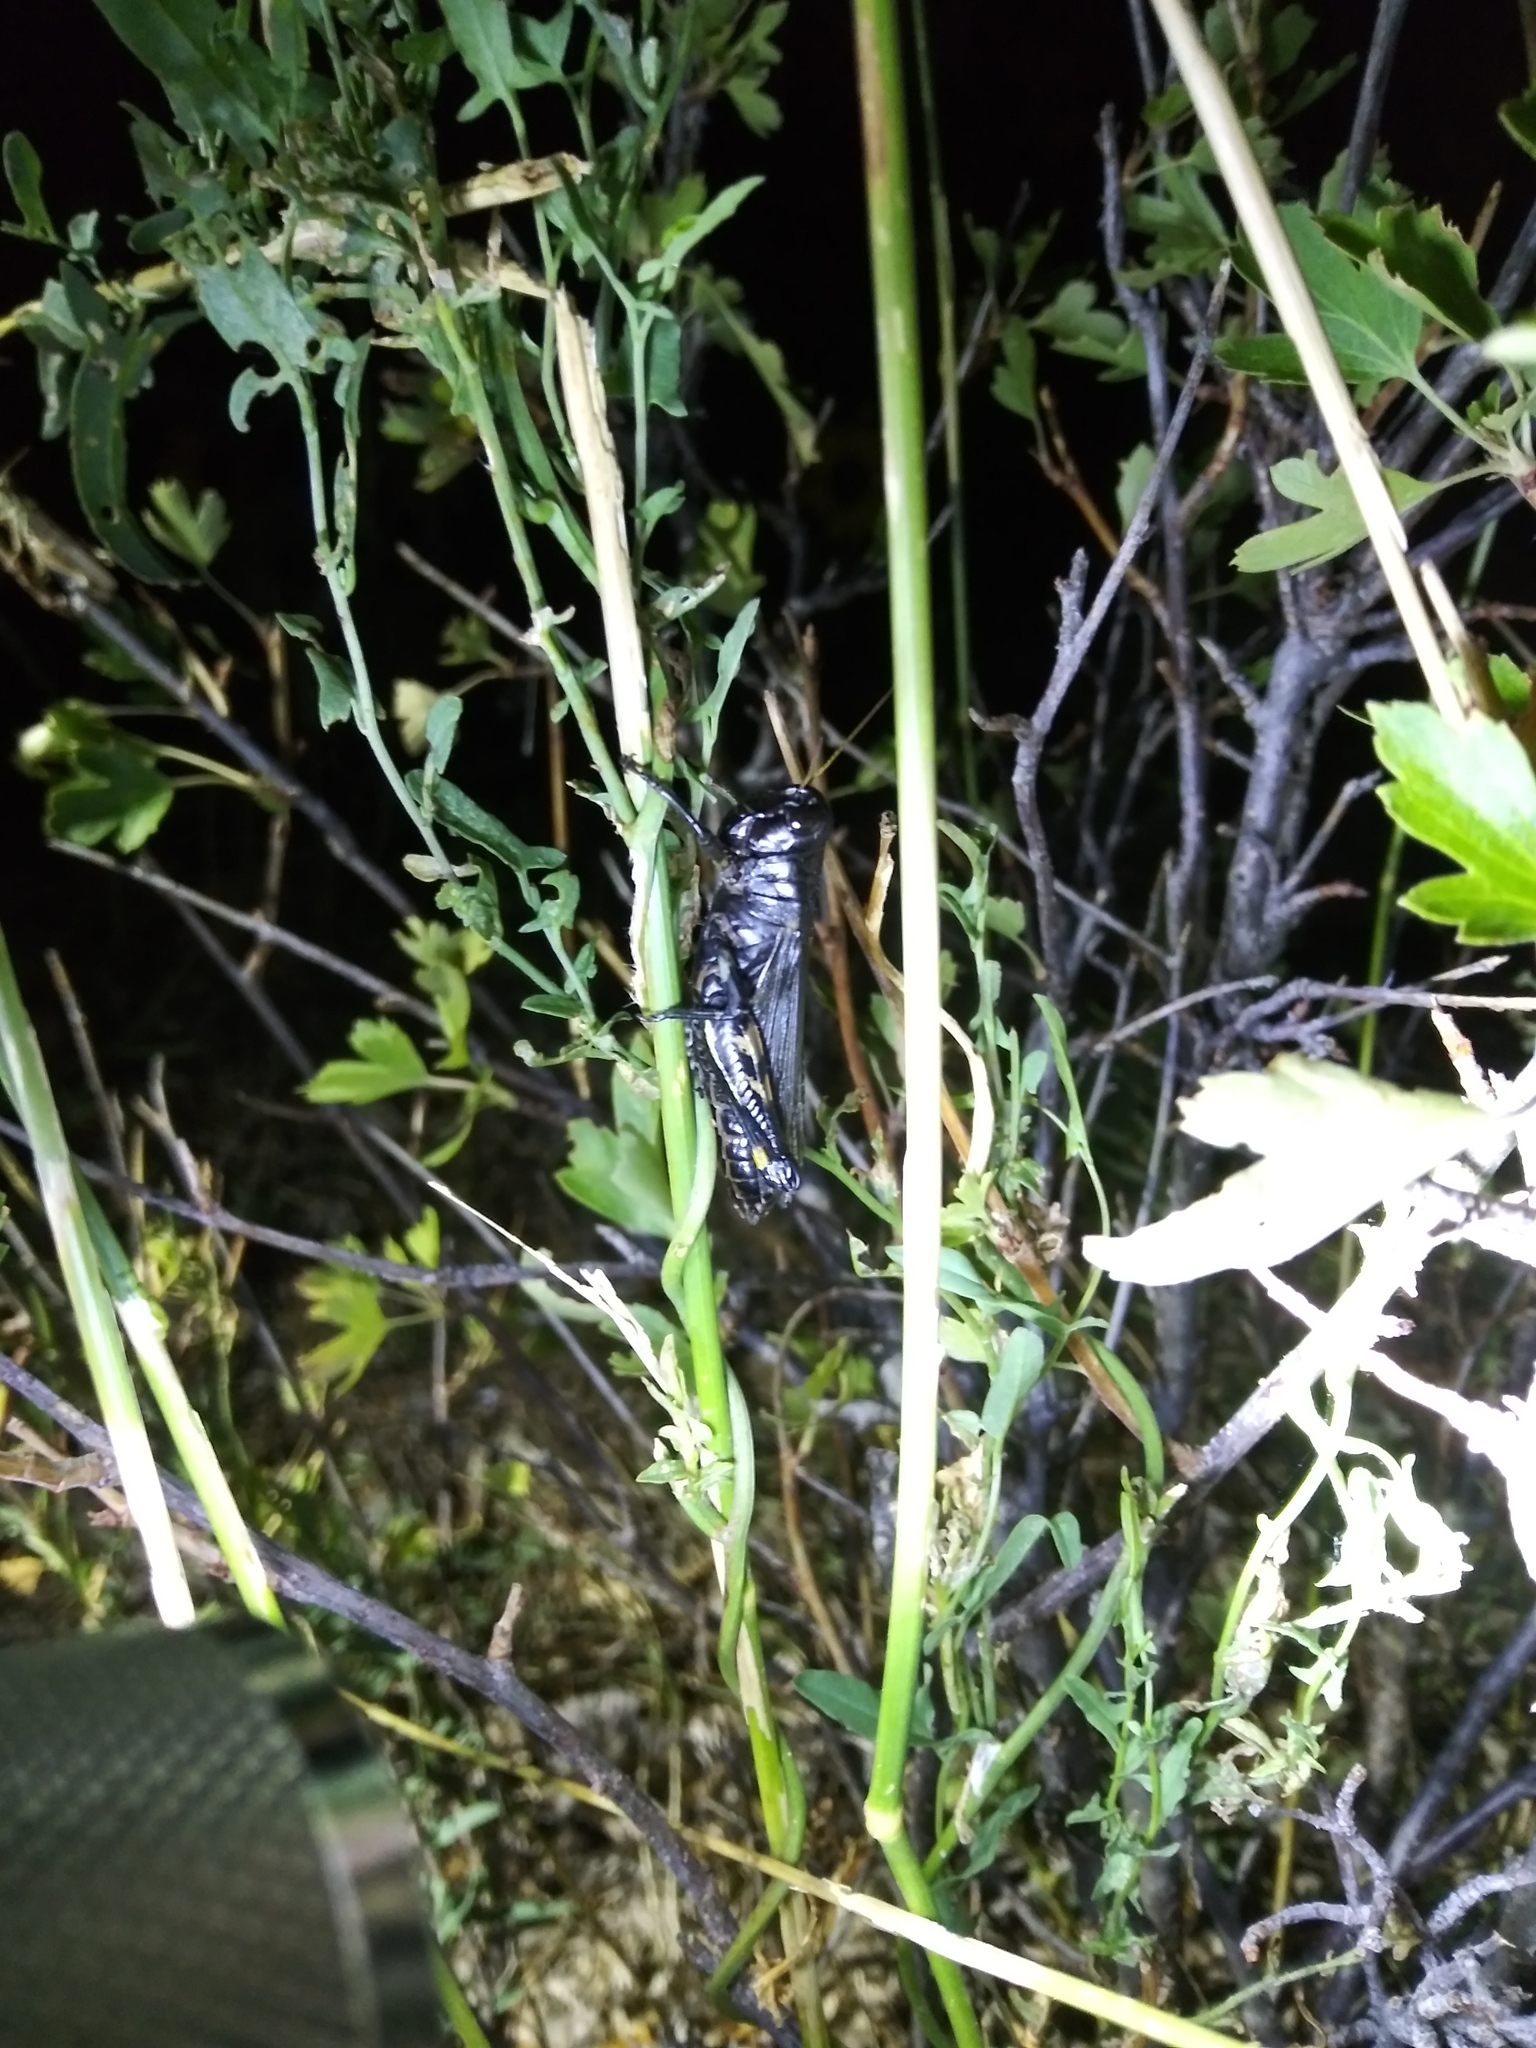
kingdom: Animalia
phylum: Arthropoda
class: Insecta
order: Orthoptera
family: Acrididae
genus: Melanoplus
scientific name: Melanoplus differentialis
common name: Differential grasshopper
